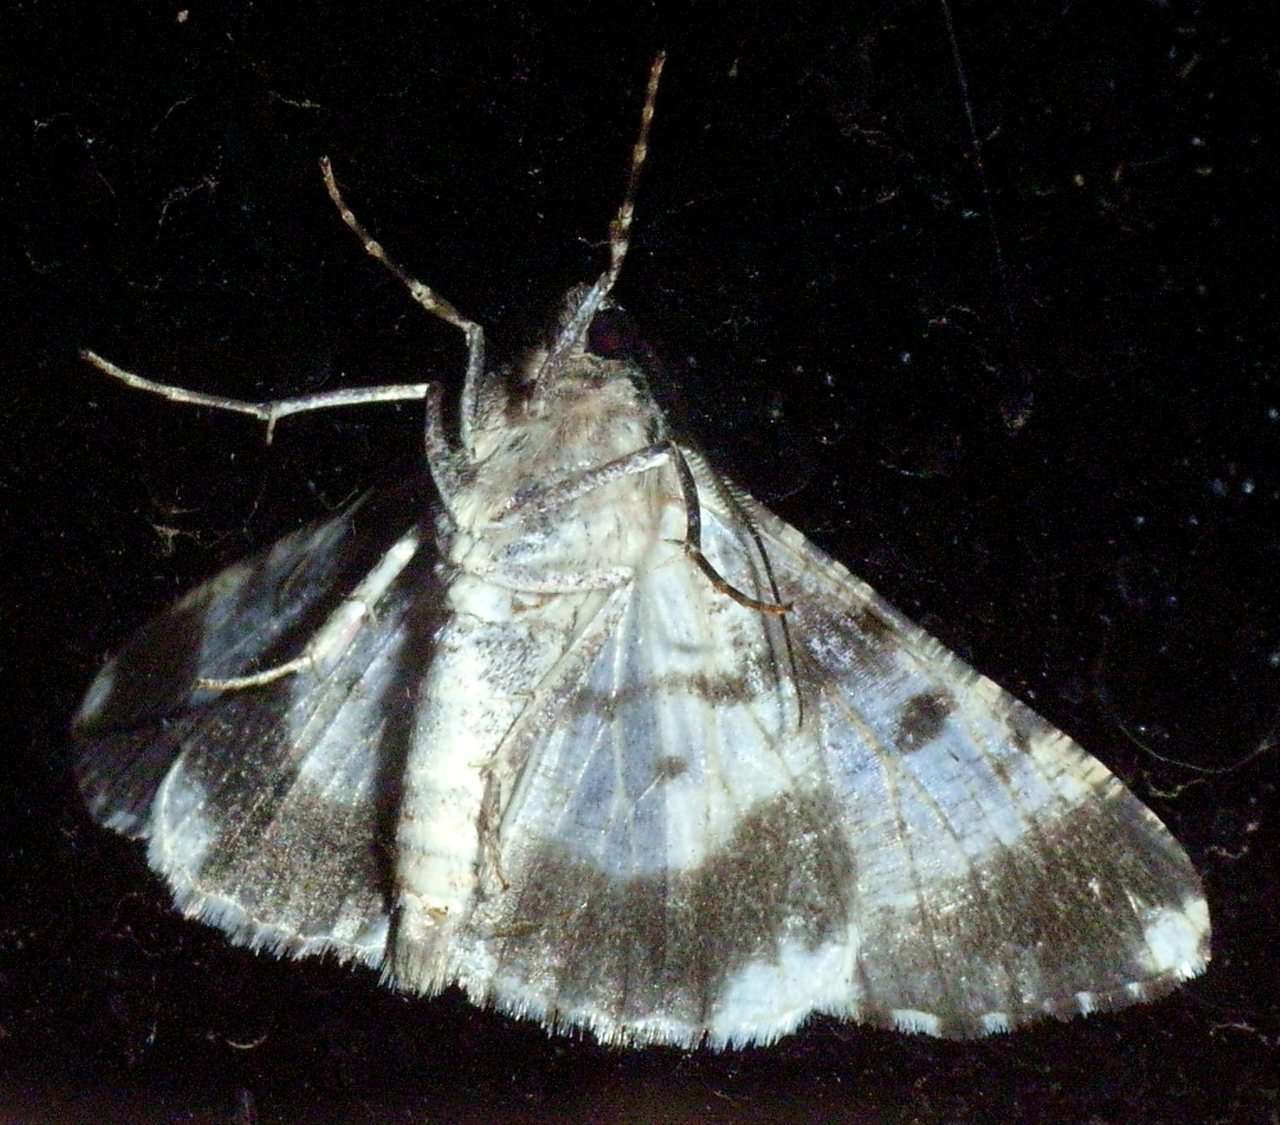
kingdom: Animalia
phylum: Arthropoda
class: Insecta
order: Lepidoptera
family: Geometridae
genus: Gastrinodes
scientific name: Gastrinodes argoplaca
